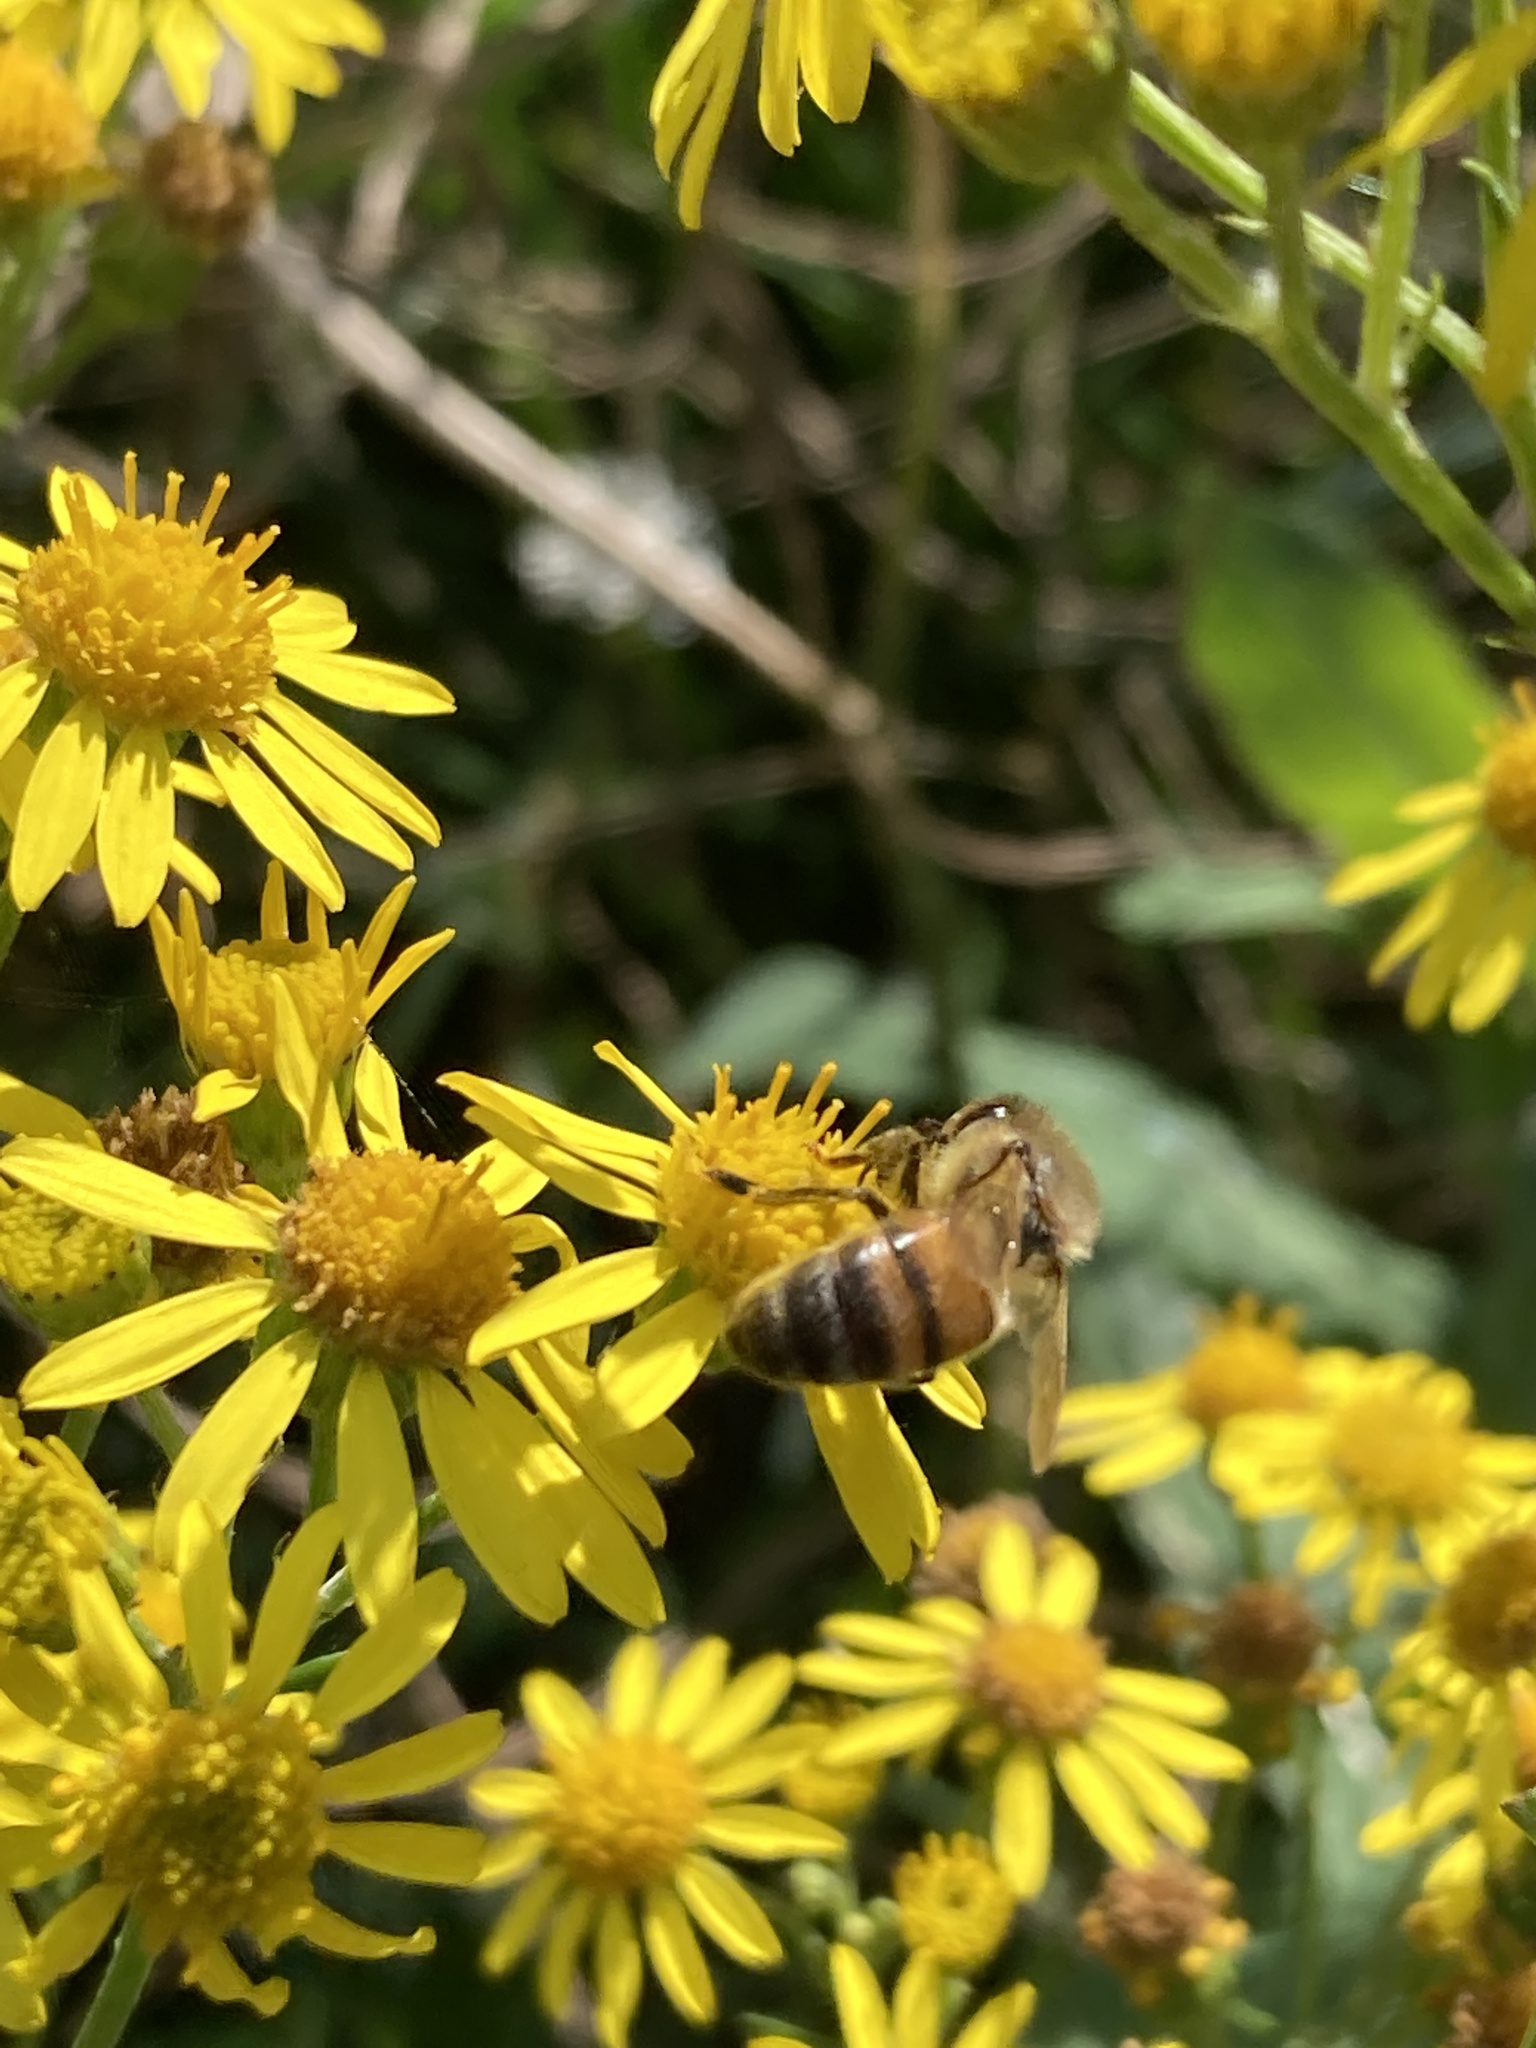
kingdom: Animalia
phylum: Arthropoda
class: Insecta
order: Hymenoptera
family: Apidae
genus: Apis
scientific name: Apis mellifera
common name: Honey bee
